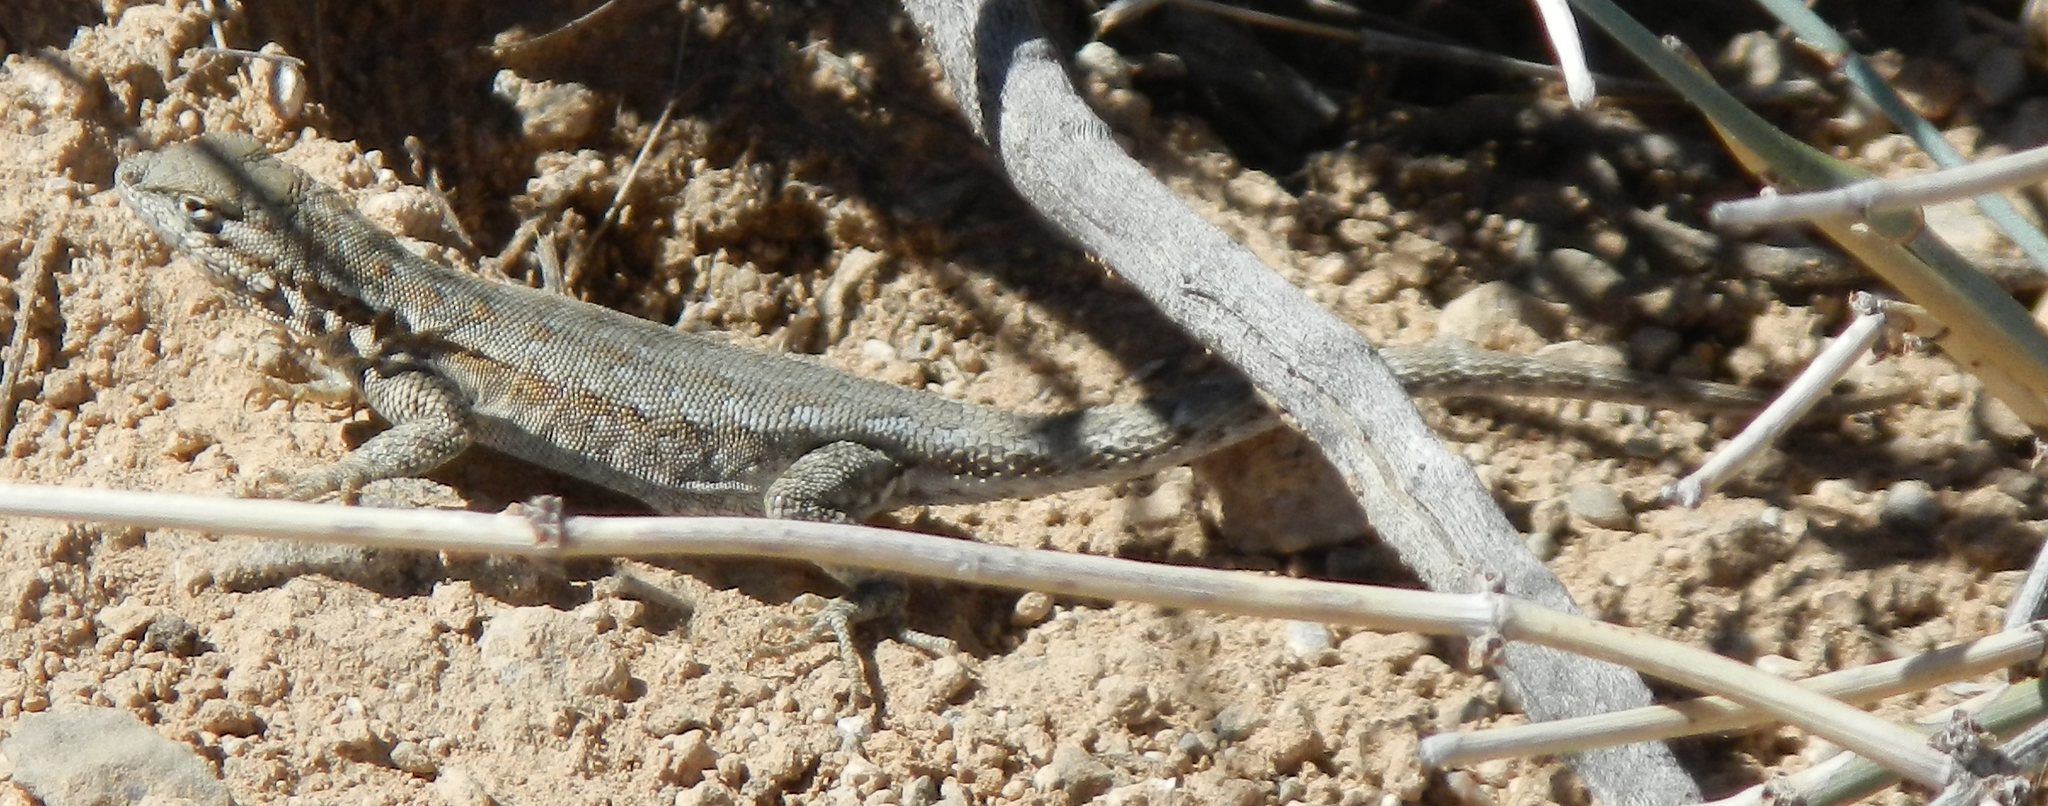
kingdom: Animalia
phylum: Chordata
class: Squamata
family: Phrynosomatidae
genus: Uta
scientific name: Uta stansburiana
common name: Side-blotched lizard
